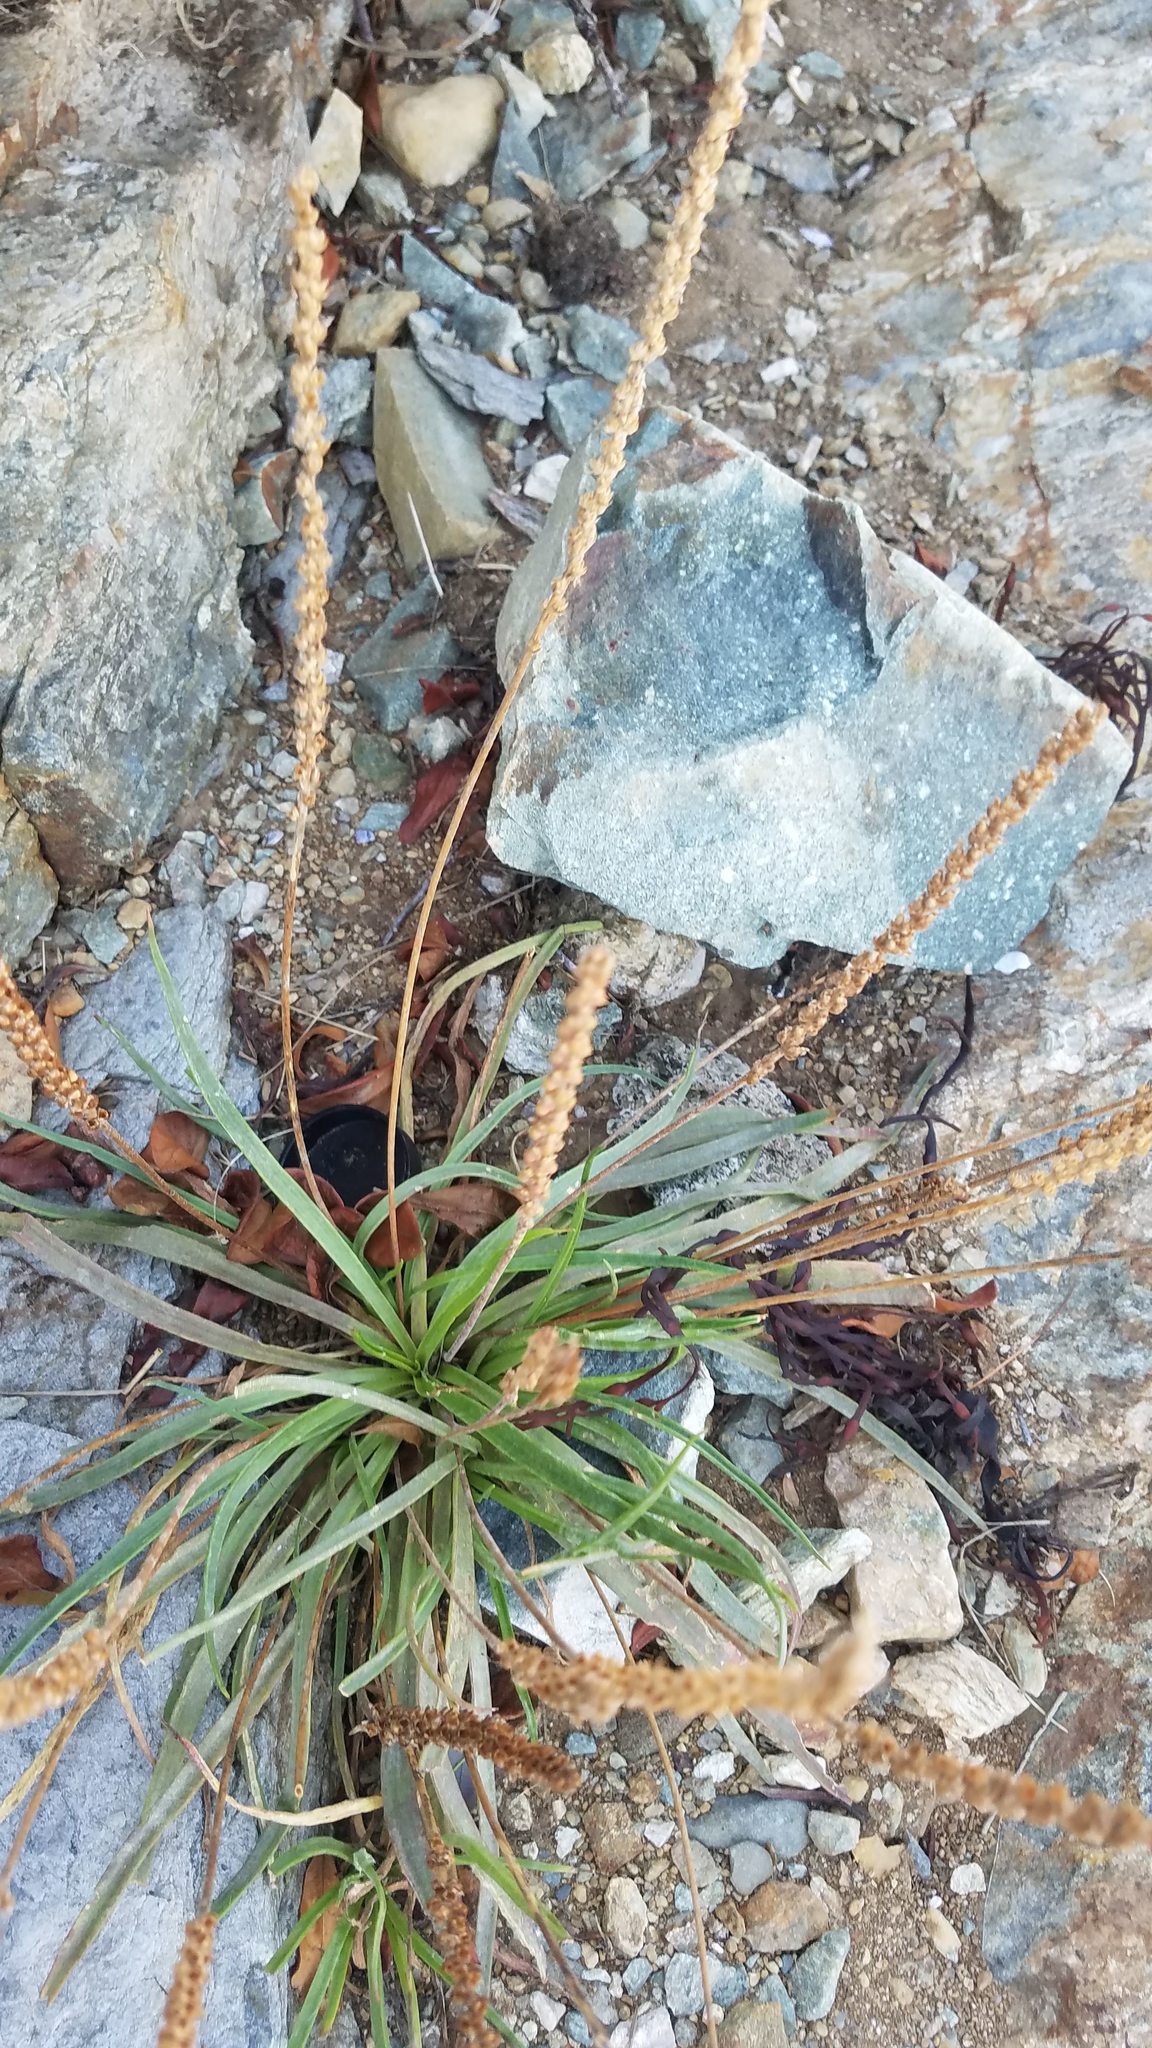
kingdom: Plantae
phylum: Tracheophyta
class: Magnoliopsida
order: Lamiales
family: Plantaginaceae
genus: Plantago
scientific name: Plantago maritima
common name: Sea plantain
